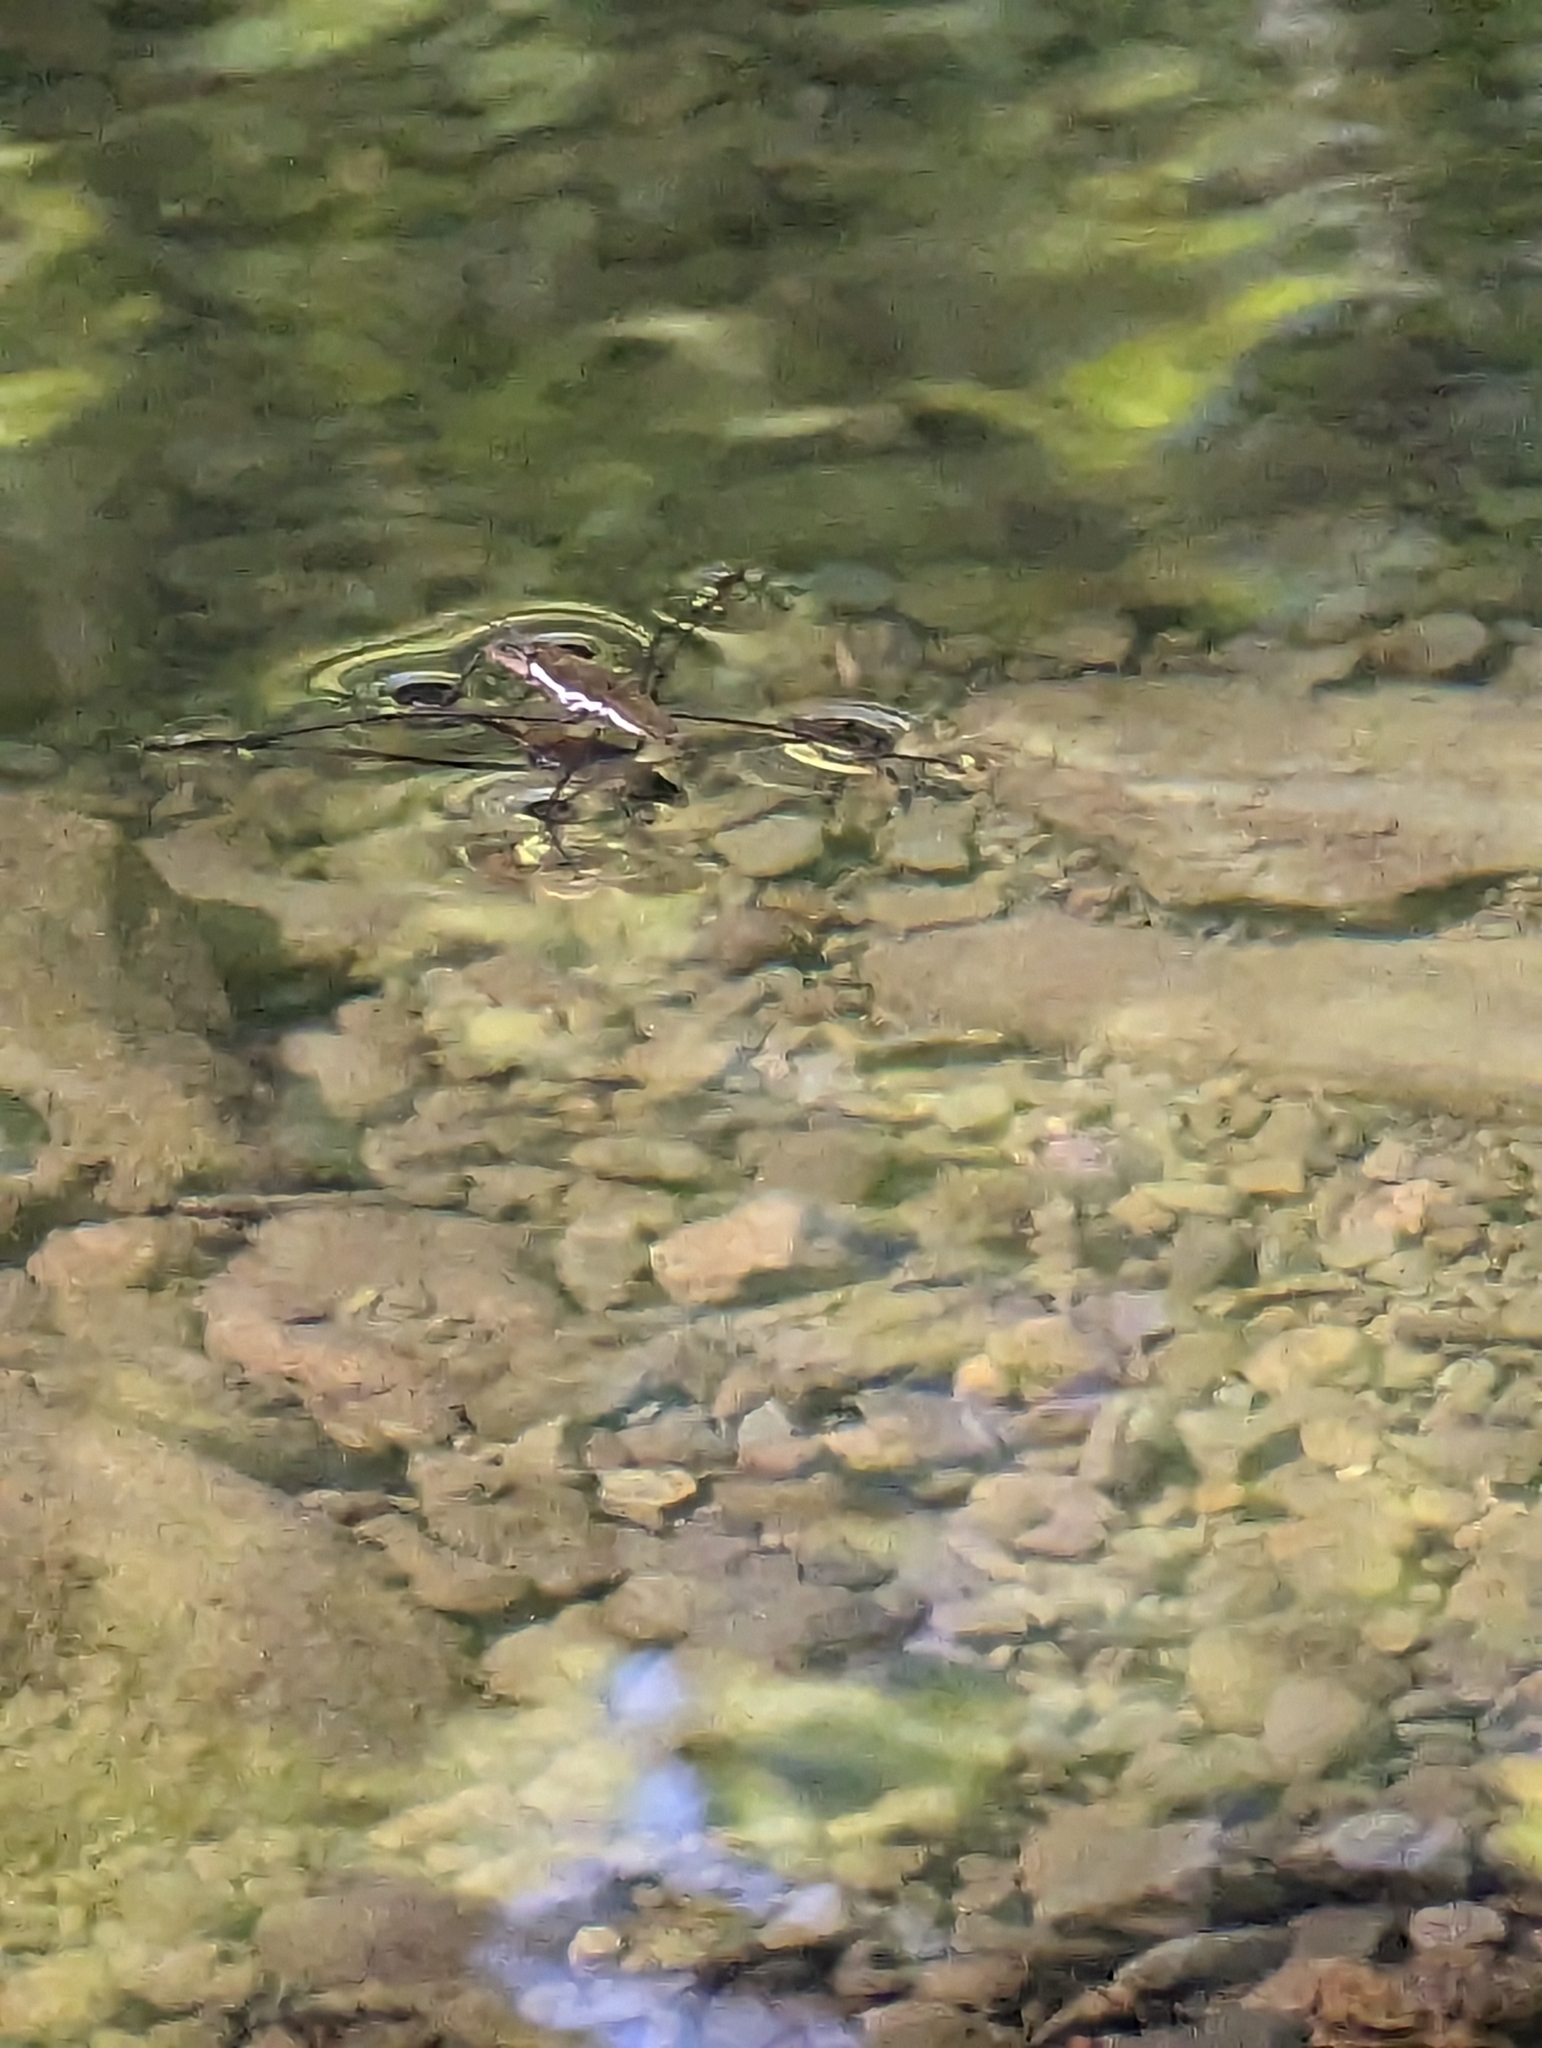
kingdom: Animalia
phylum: Arthropoda
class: Insecta
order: Hemiptera
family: Gerridae
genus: Aquarius
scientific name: Aquarius remigis
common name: Common water strider
